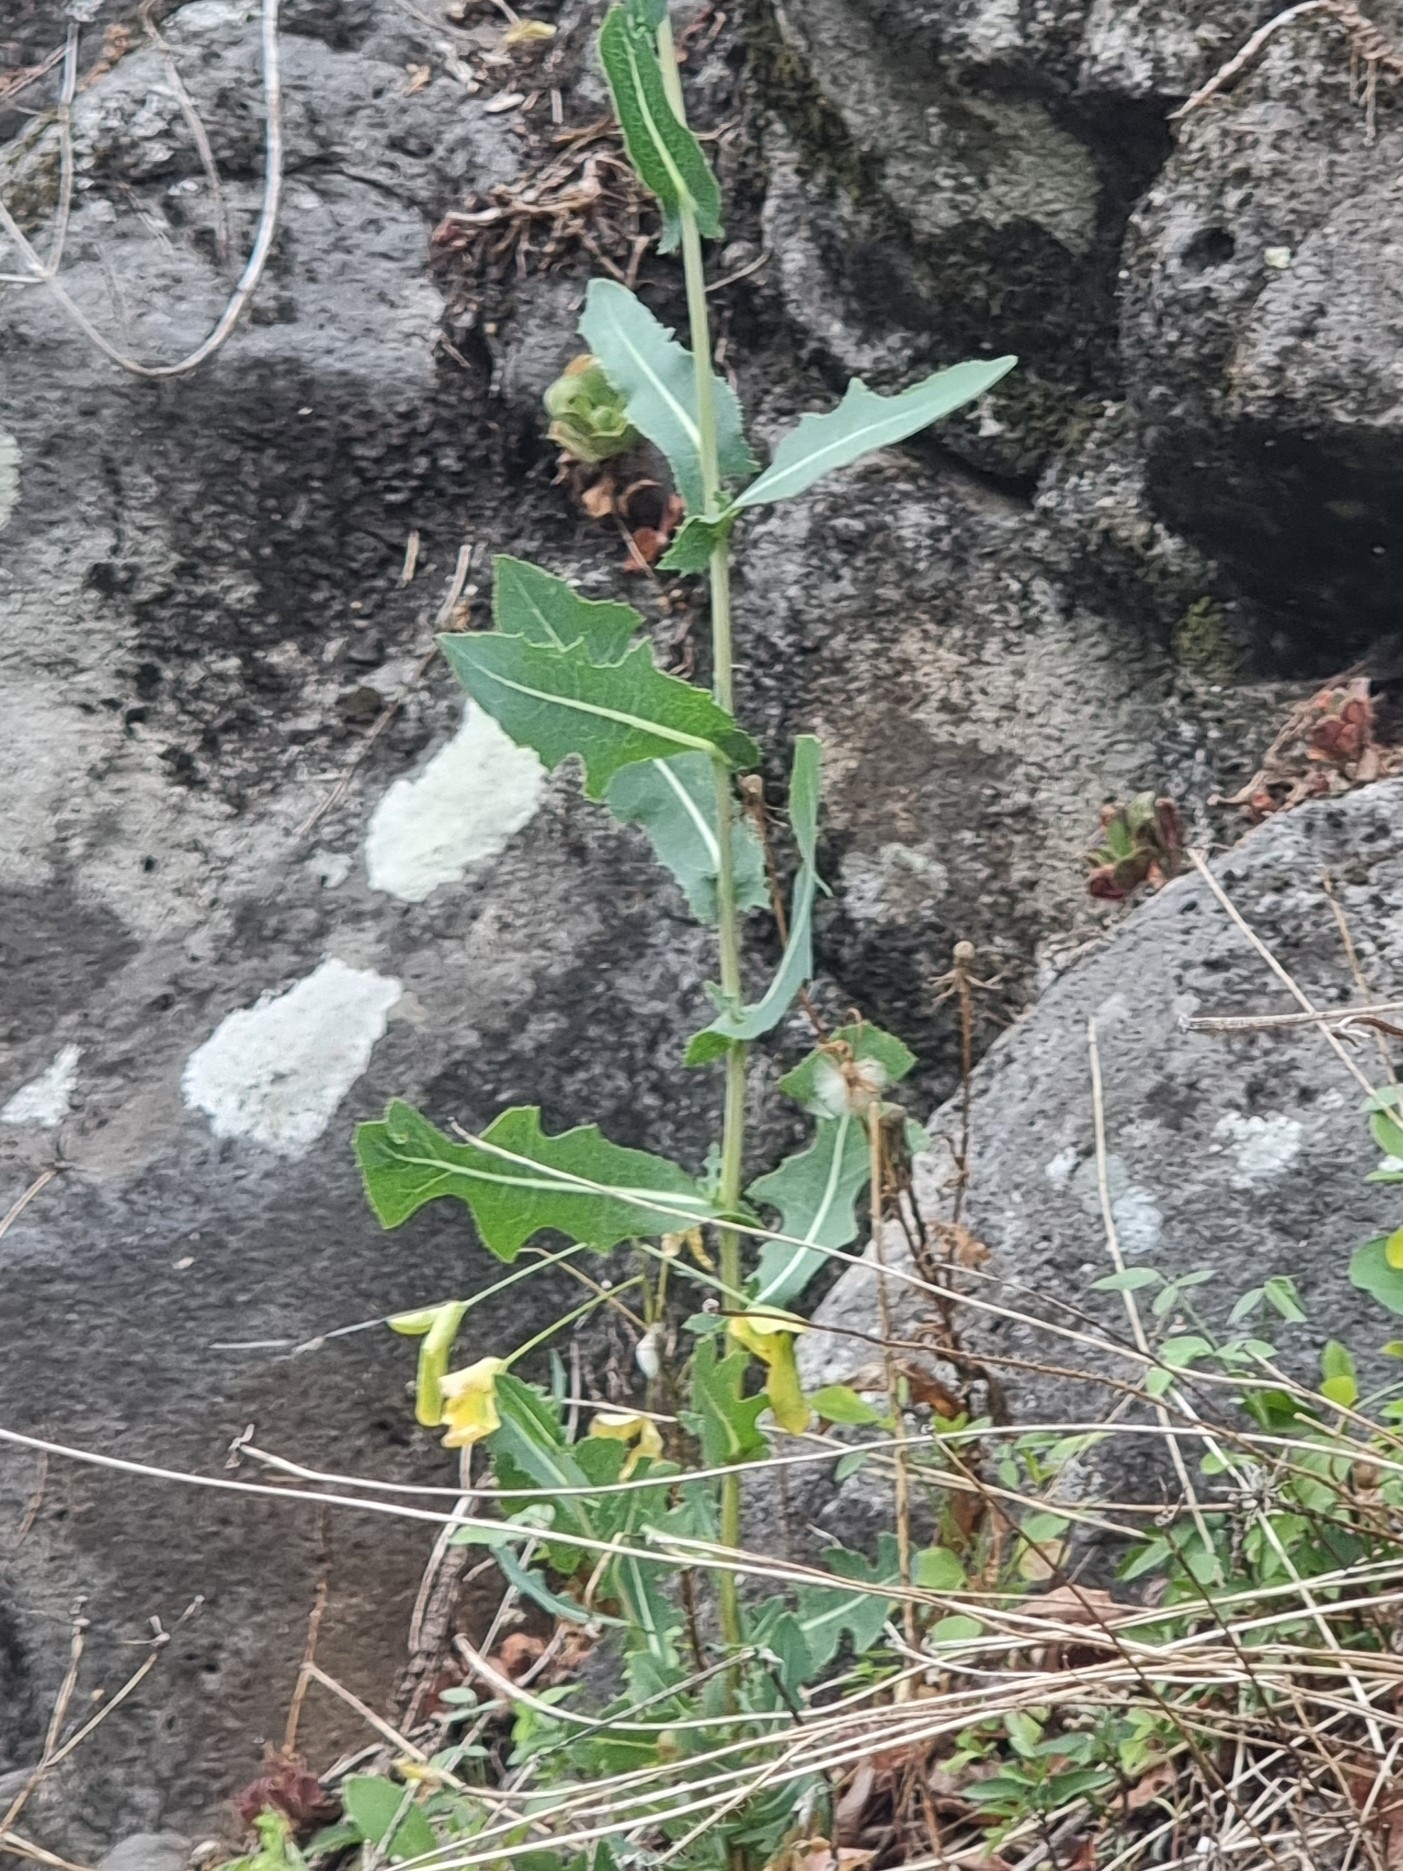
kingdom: Plantae
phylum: Tracheophyta
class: Magnoliopsida
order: Asterales
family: Asteraceae
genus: Lactuca
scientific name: Lactuca serriola
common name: Prickly lettuce
